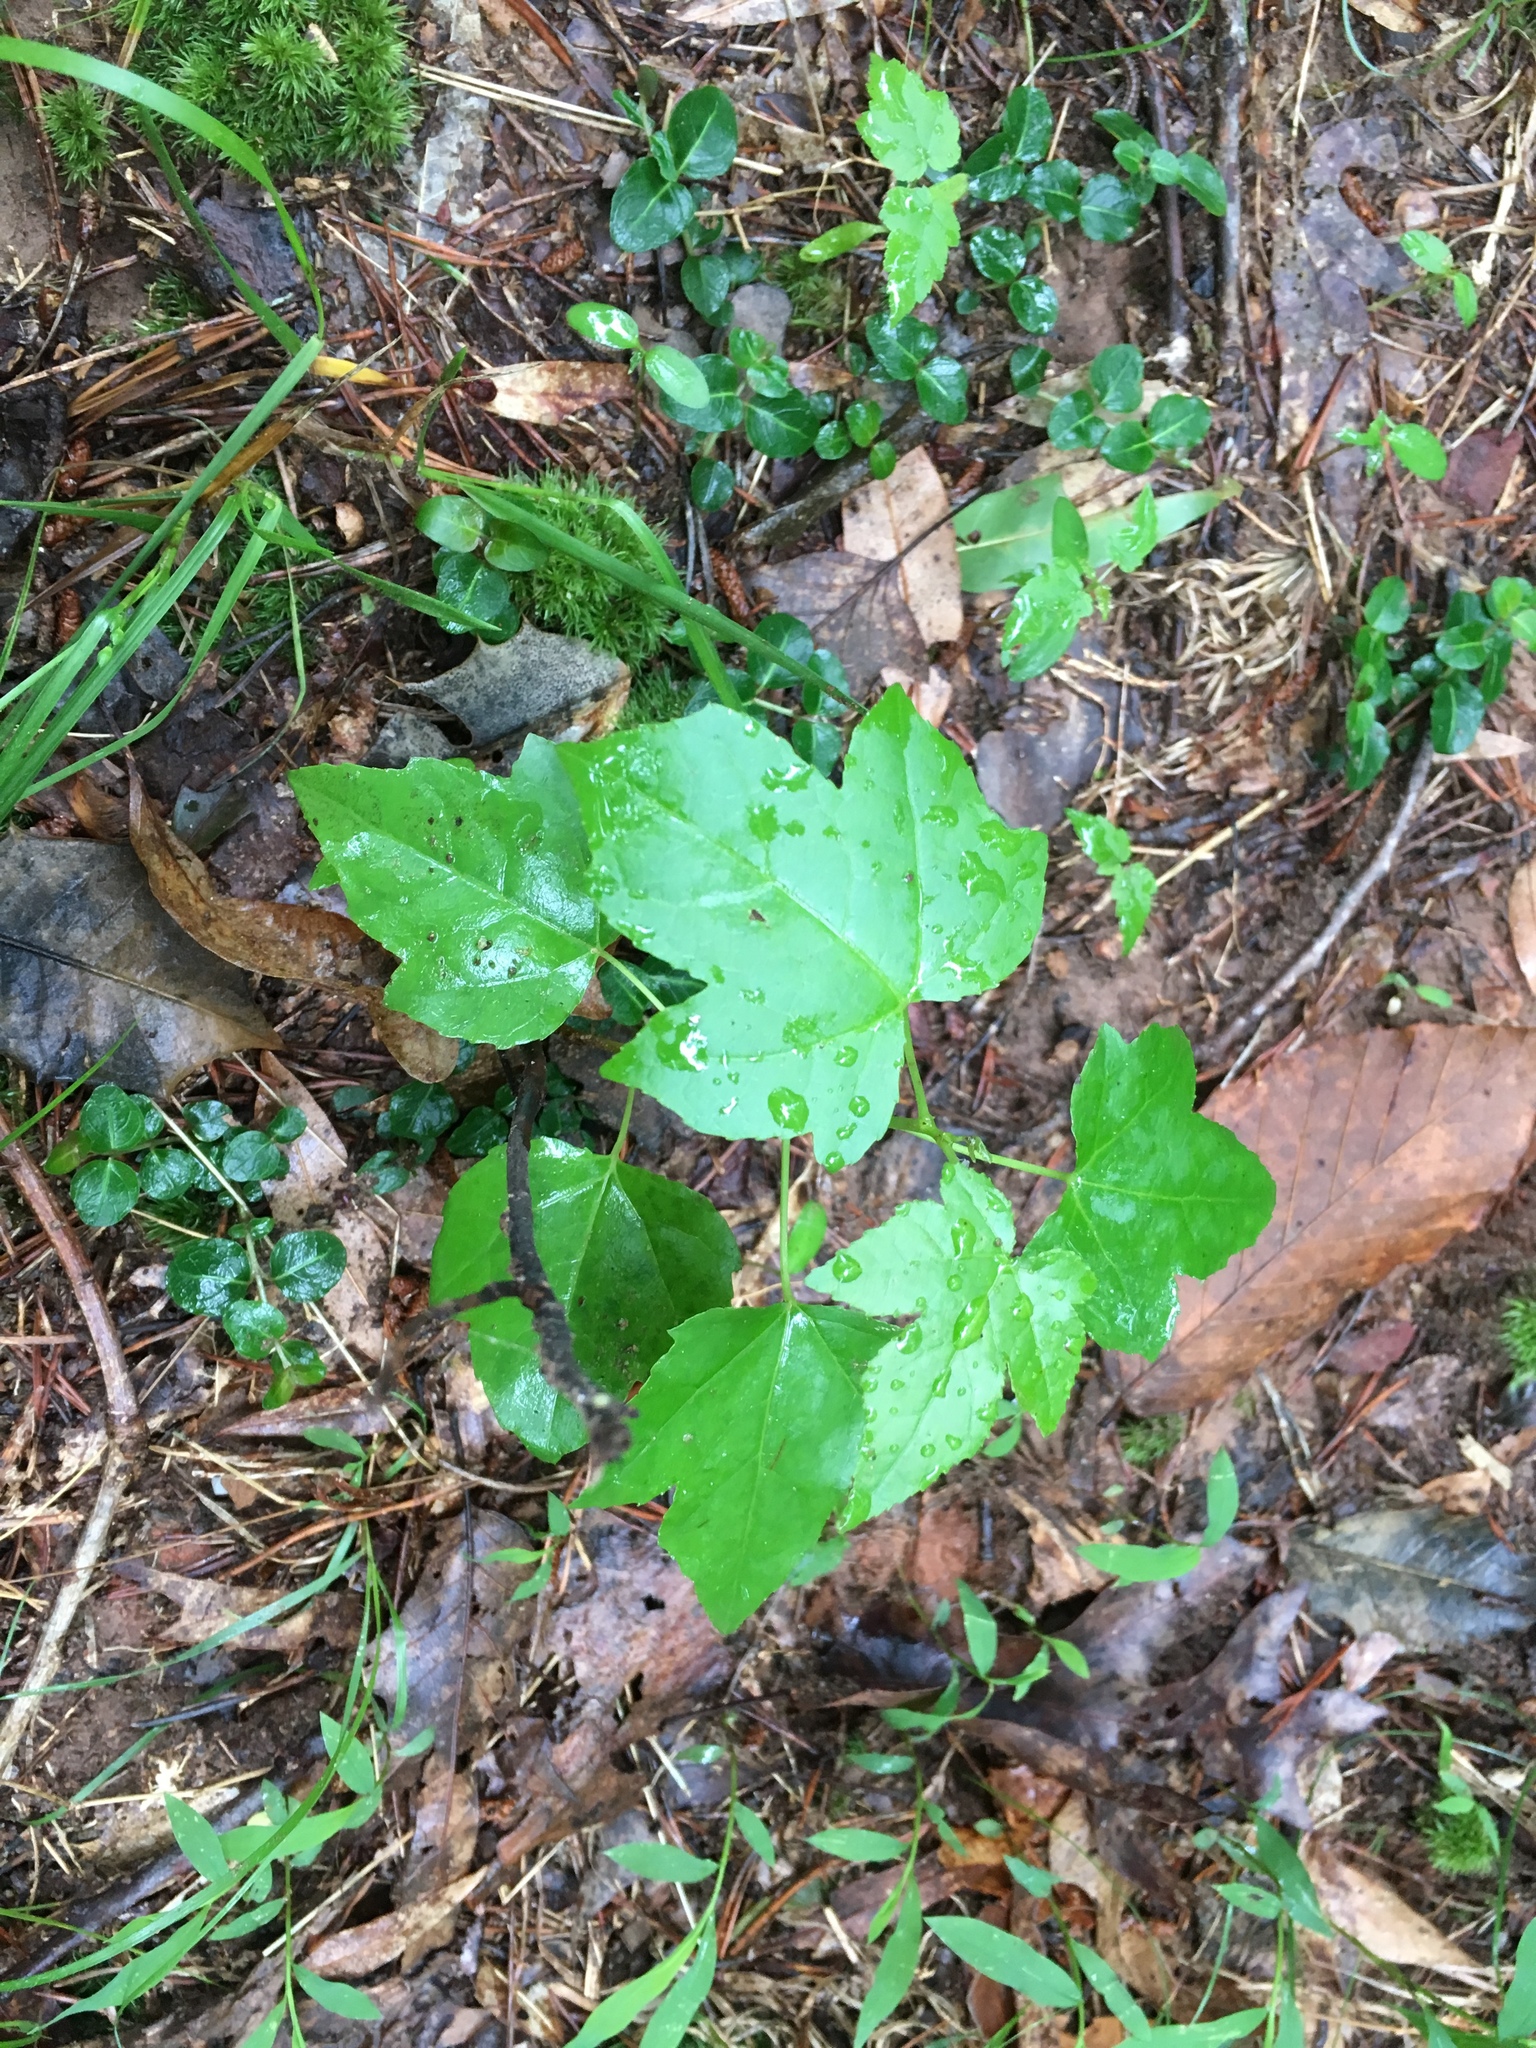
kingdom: Plantae
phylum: Tracheophyta
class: Magnoliopsida
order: Saxifragales
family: Altingiaceae
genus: Liquidambar
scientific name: Liquidambar styraciflua
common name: Sweet gum
